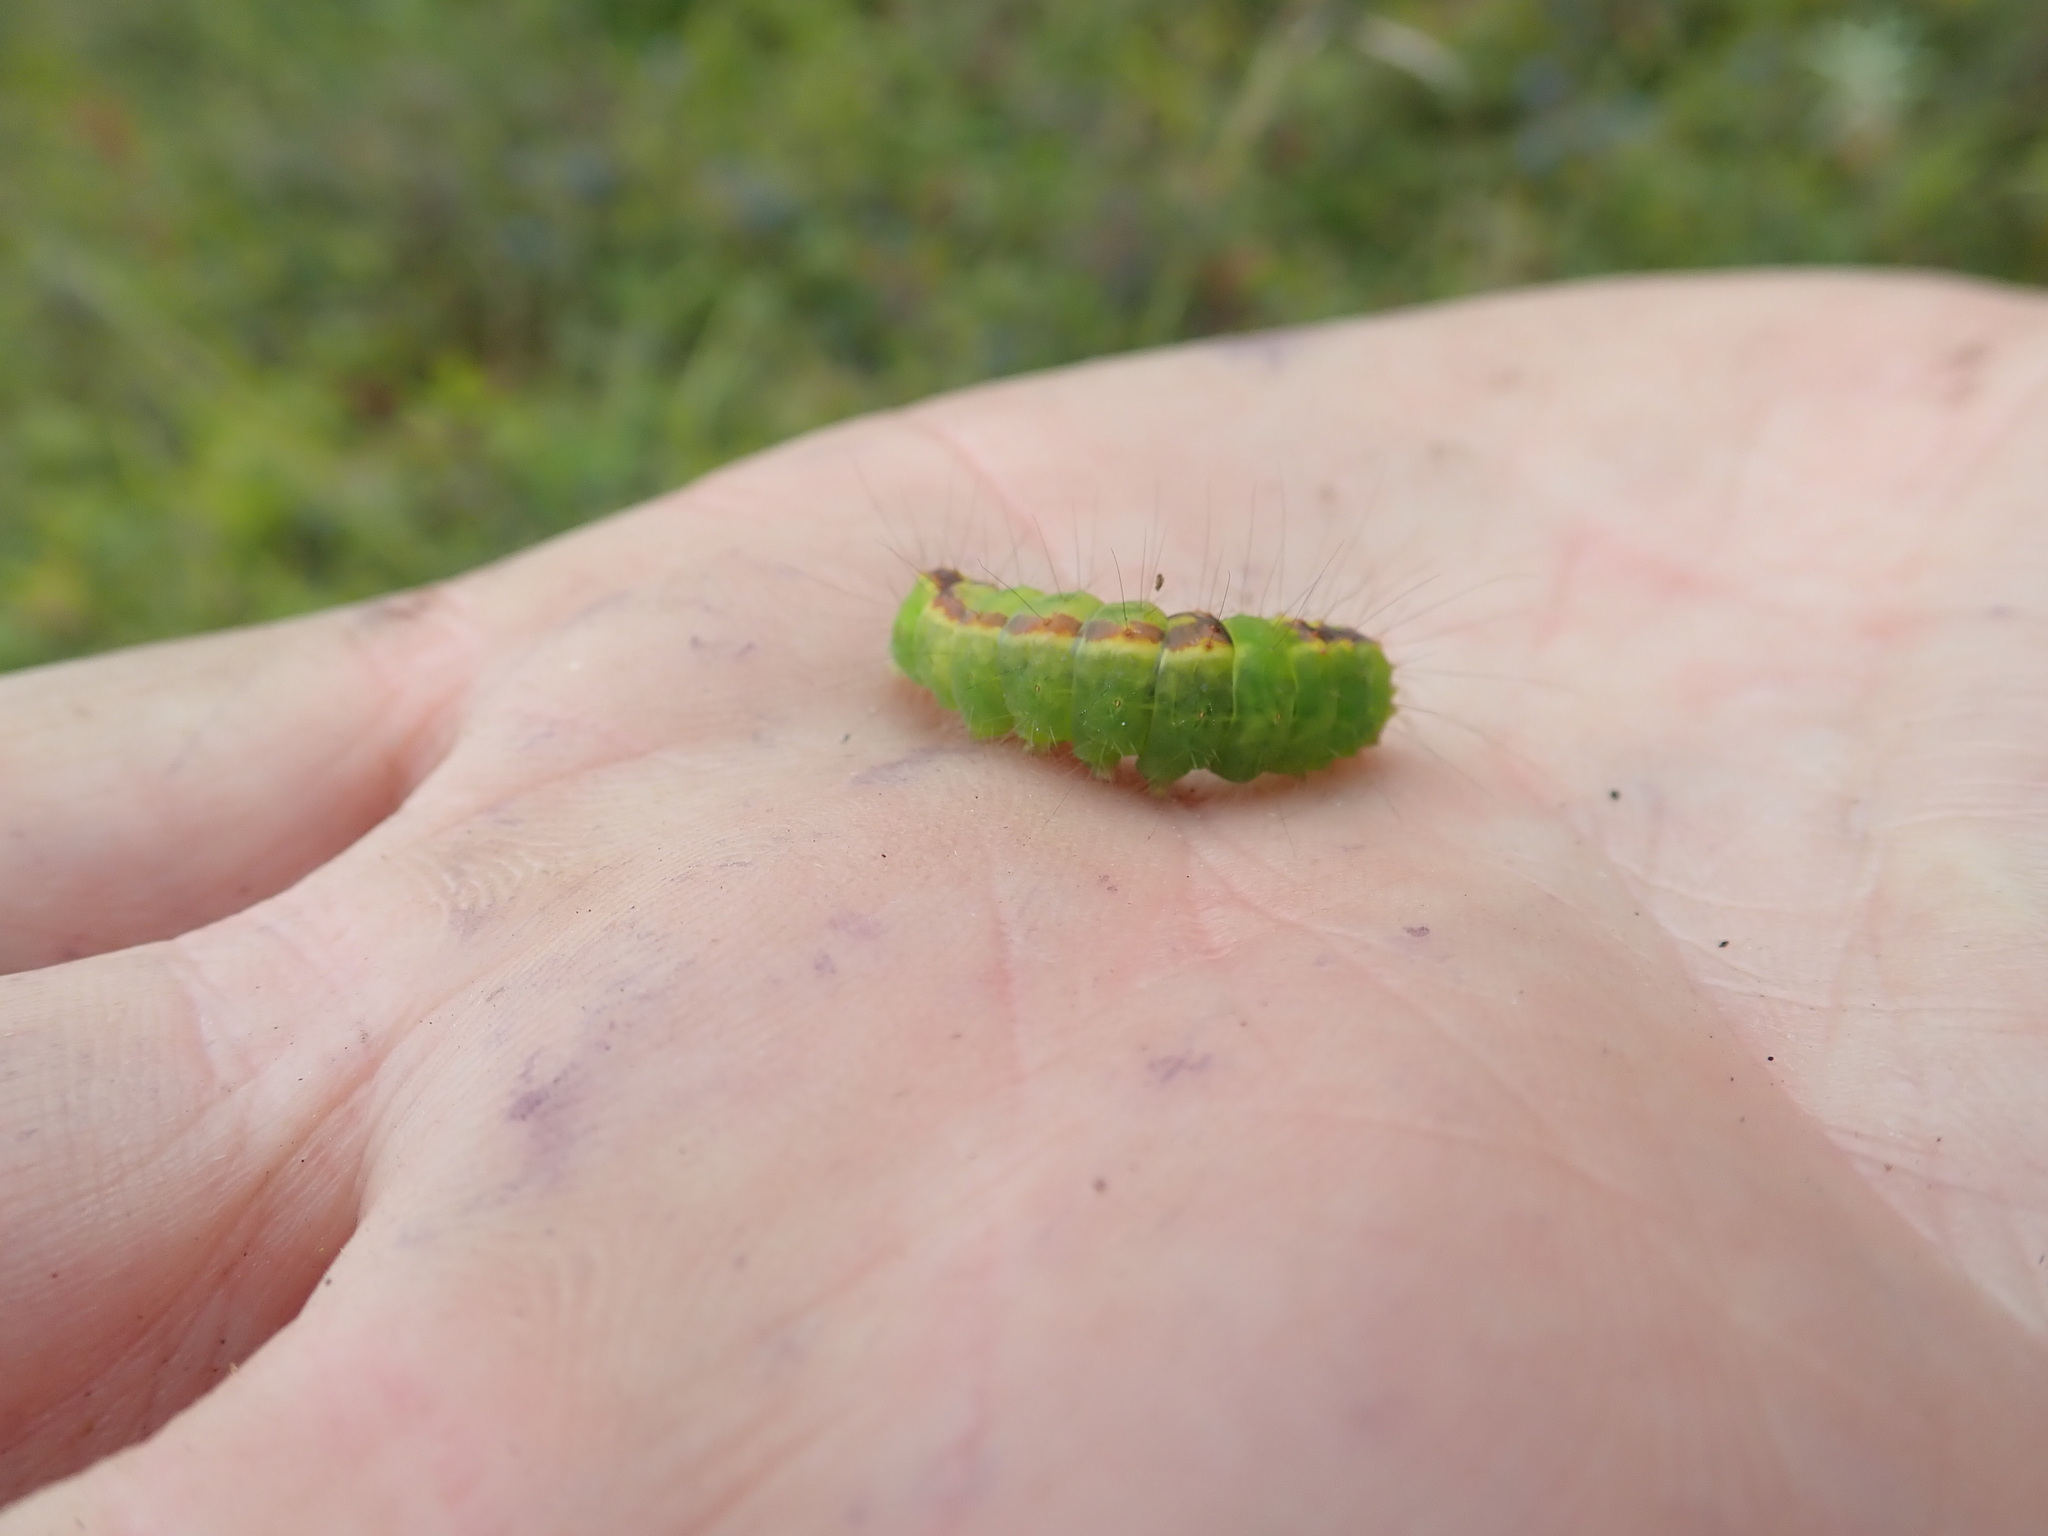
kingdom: Animalia
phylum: Arthropoda
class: Insecta
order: Lepidoptera
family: Noctuidae
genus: Acronicta
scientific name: Acronicta tritona
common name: Triton dagger
